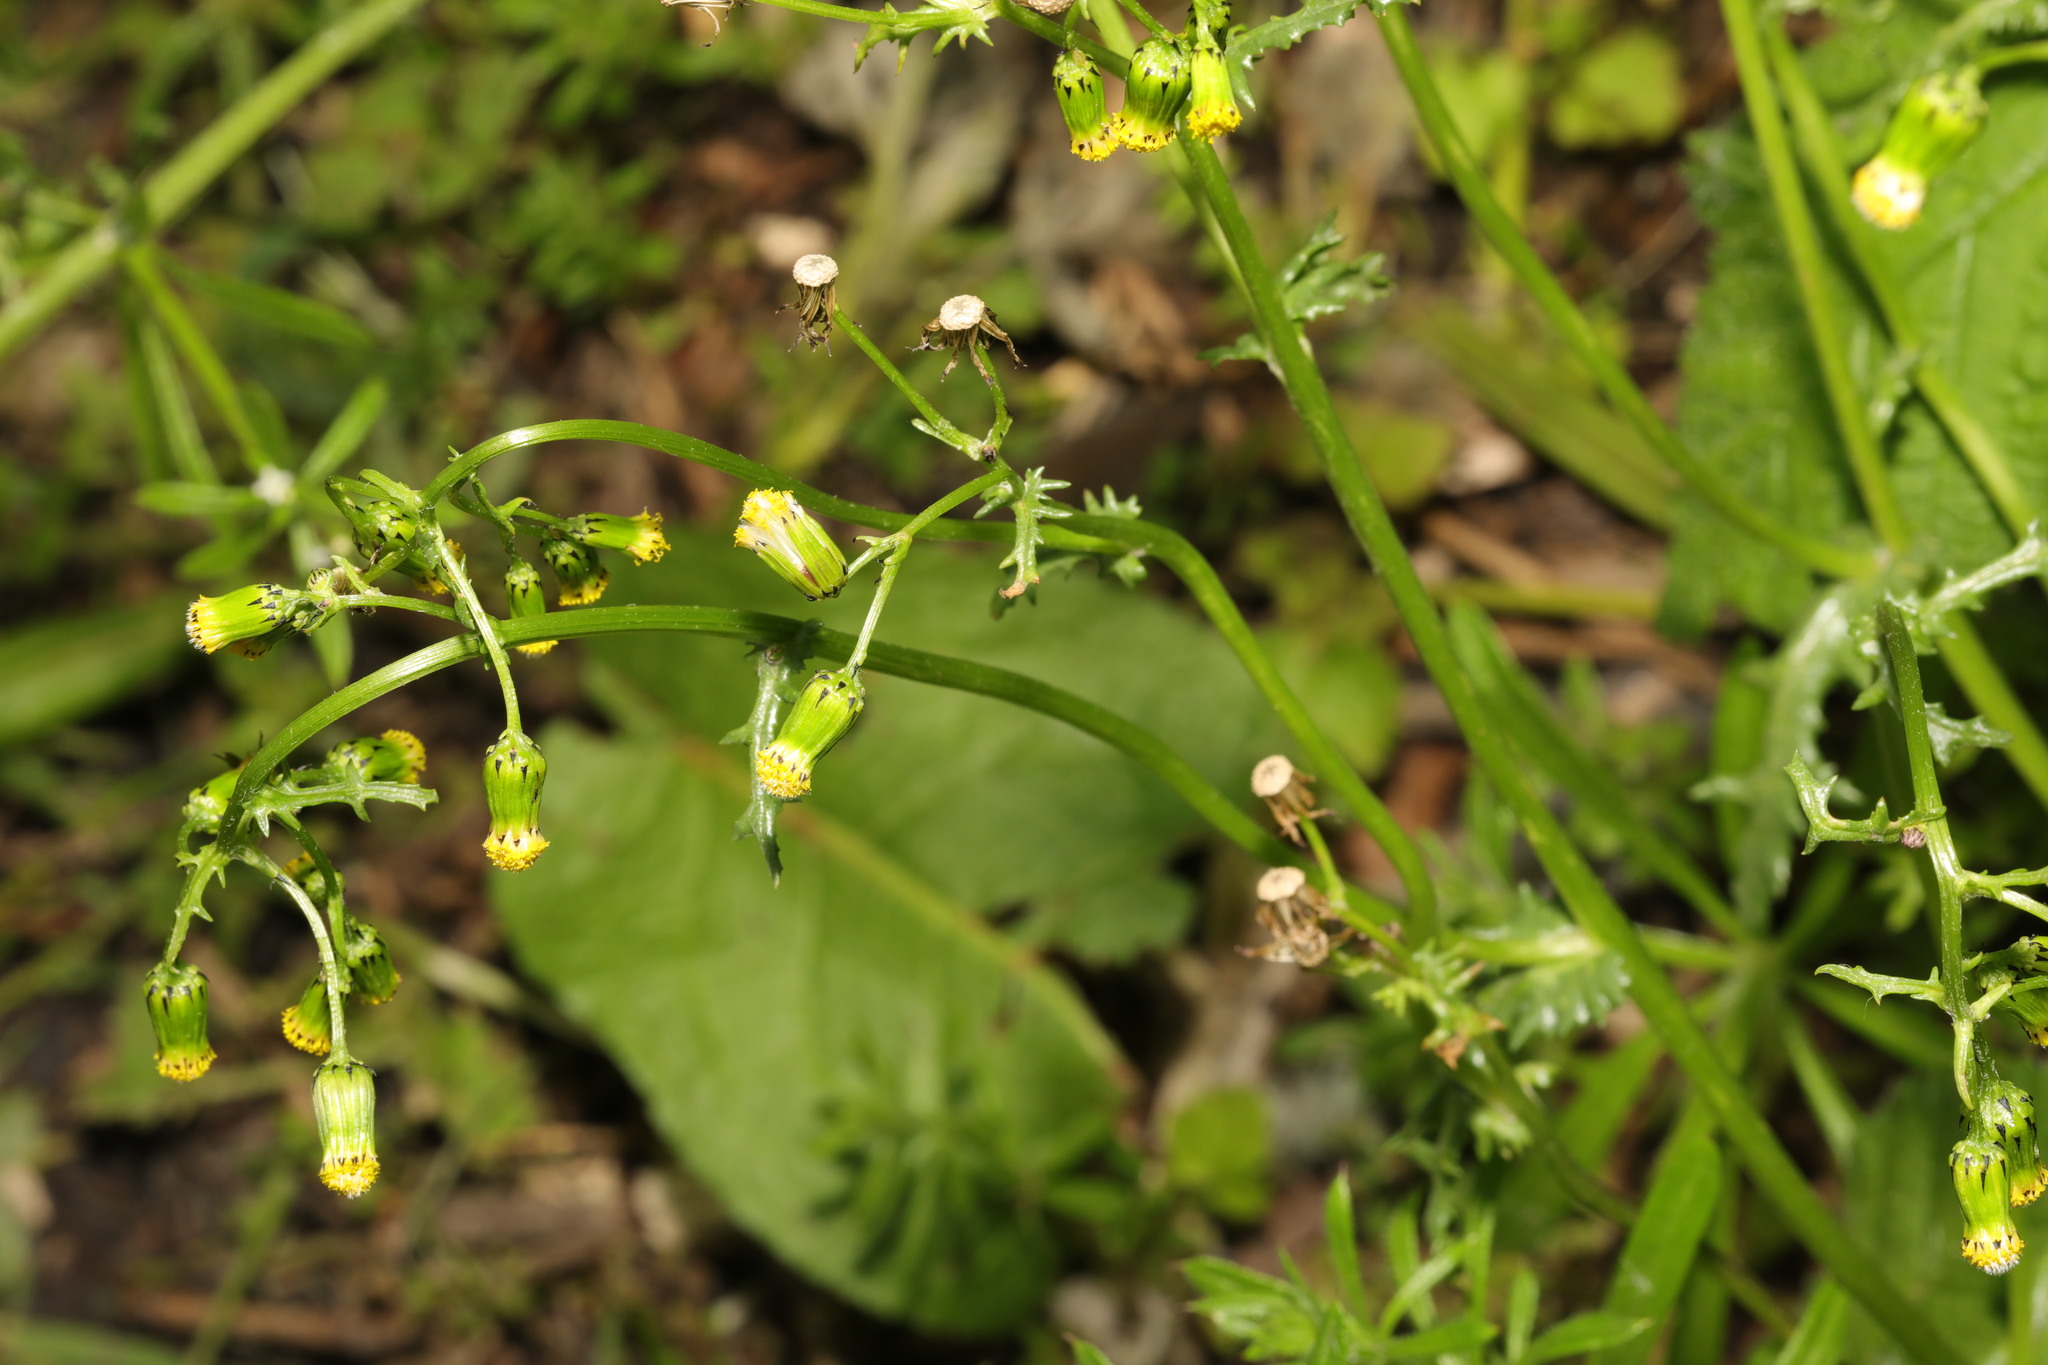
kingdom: Plantae
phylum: Tracheophyta
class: Magnoliopsida
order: Asterales
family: Asteraceae
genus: Senecio
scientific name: Senecio vulgaris
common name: Old-man-in-the-spring
